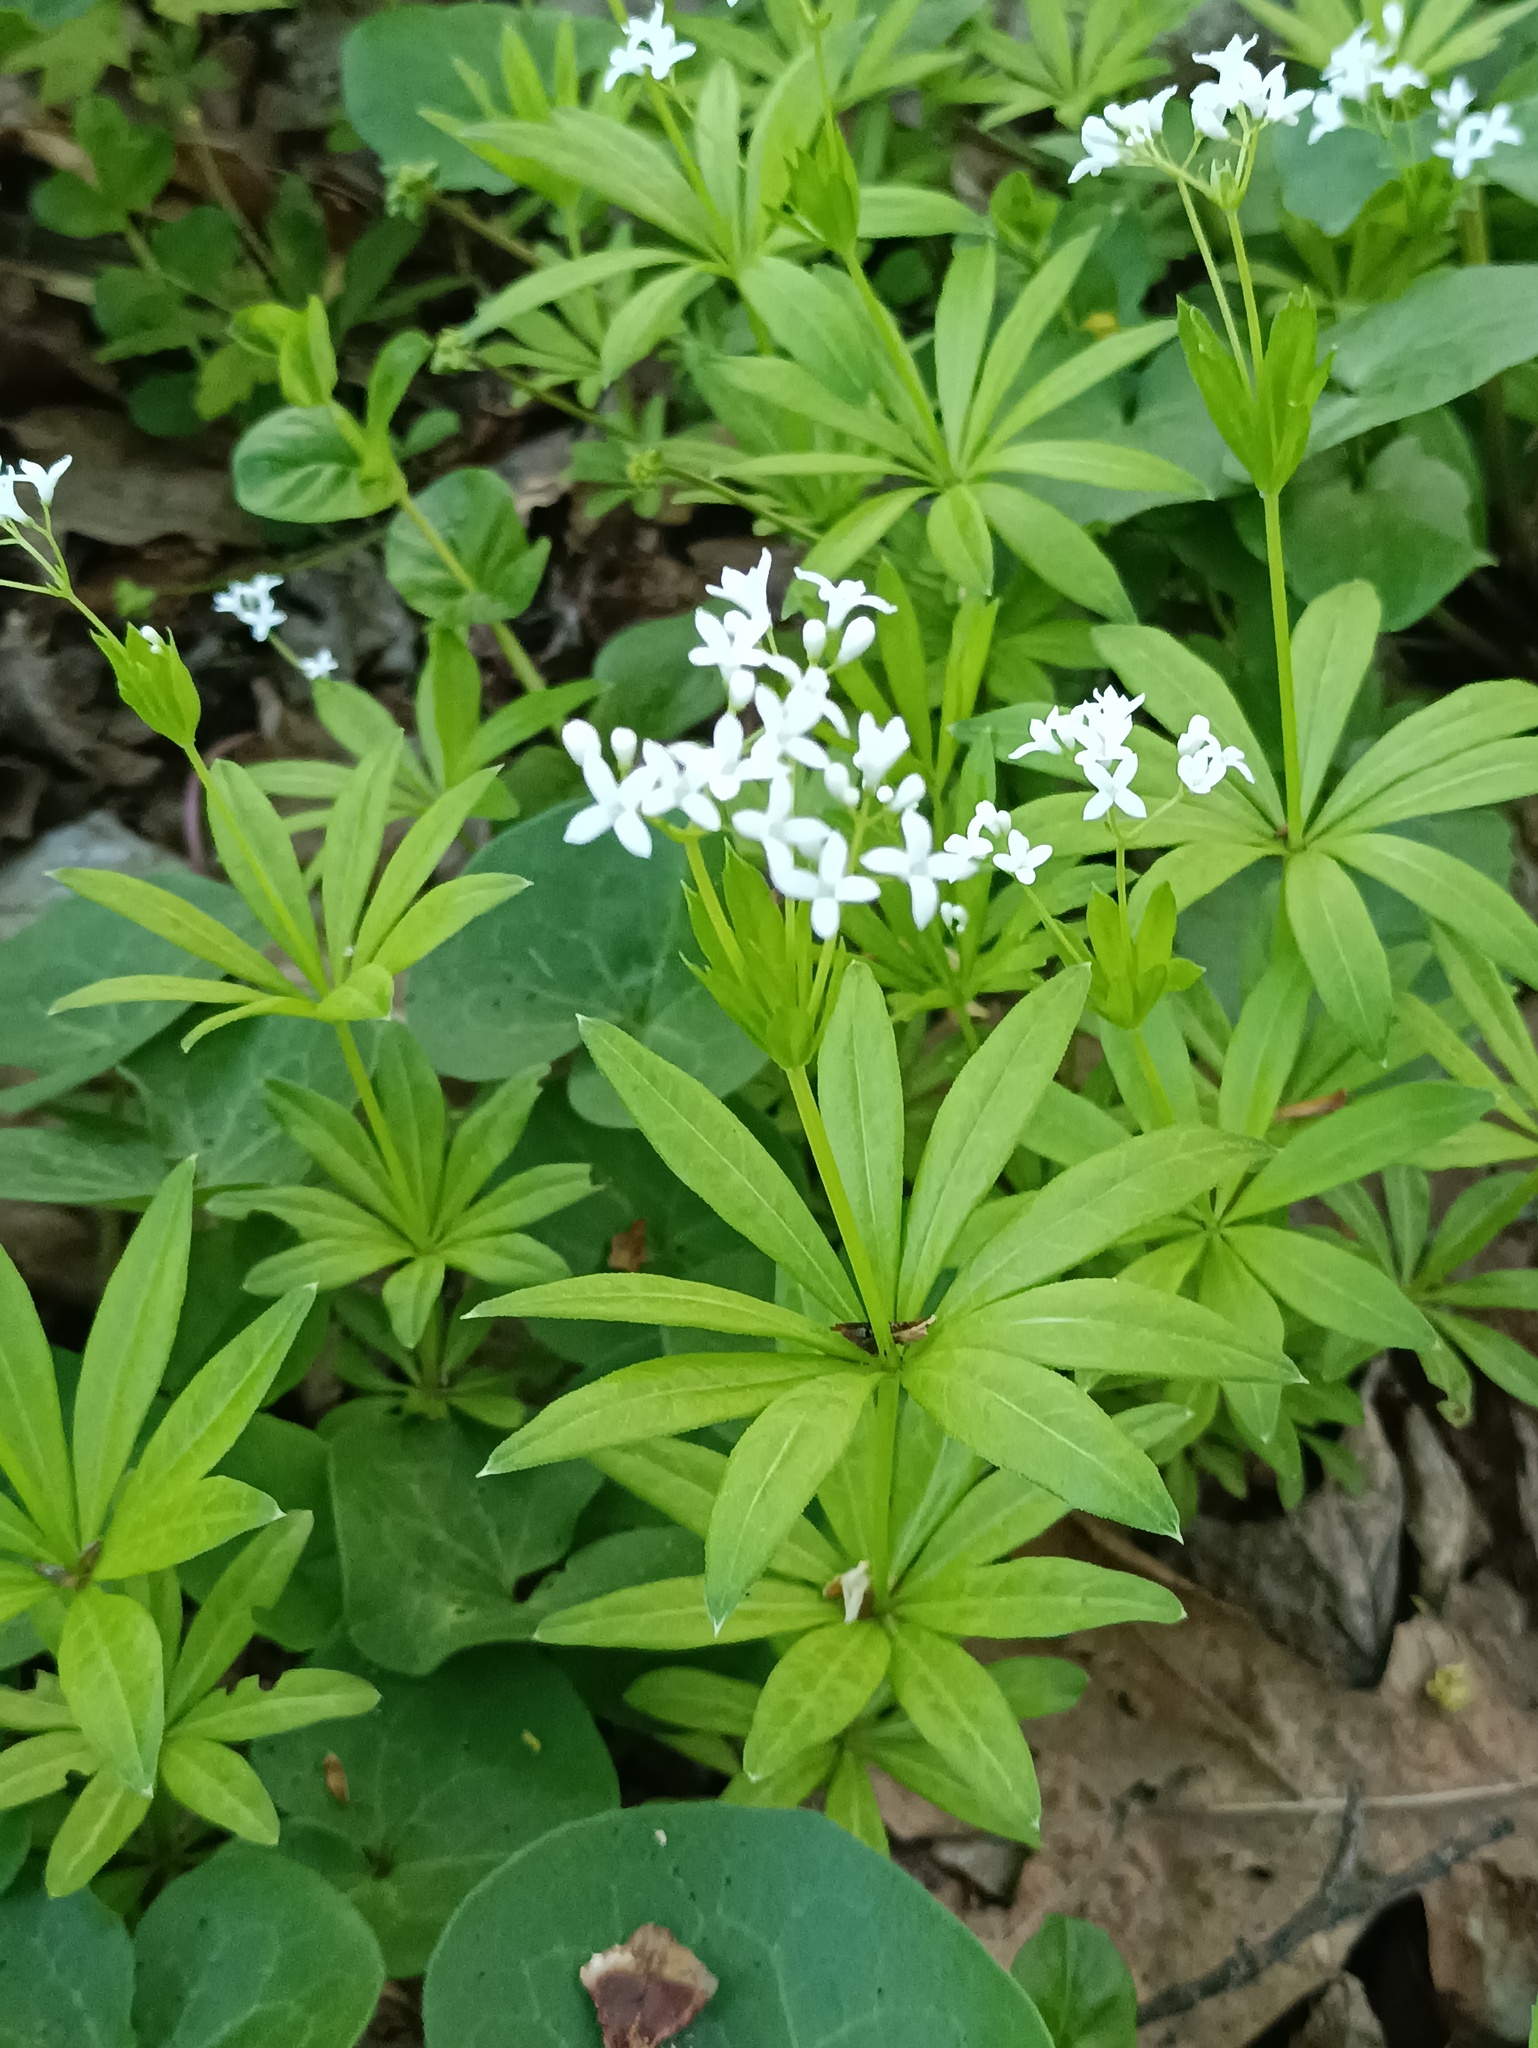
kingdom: Plantae
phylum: Tracheophyta
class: Magnoliopsida
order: Gentianales
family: Rubiaceae
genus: Galium
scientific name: Galium odoratum
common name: Sweet woodruff
